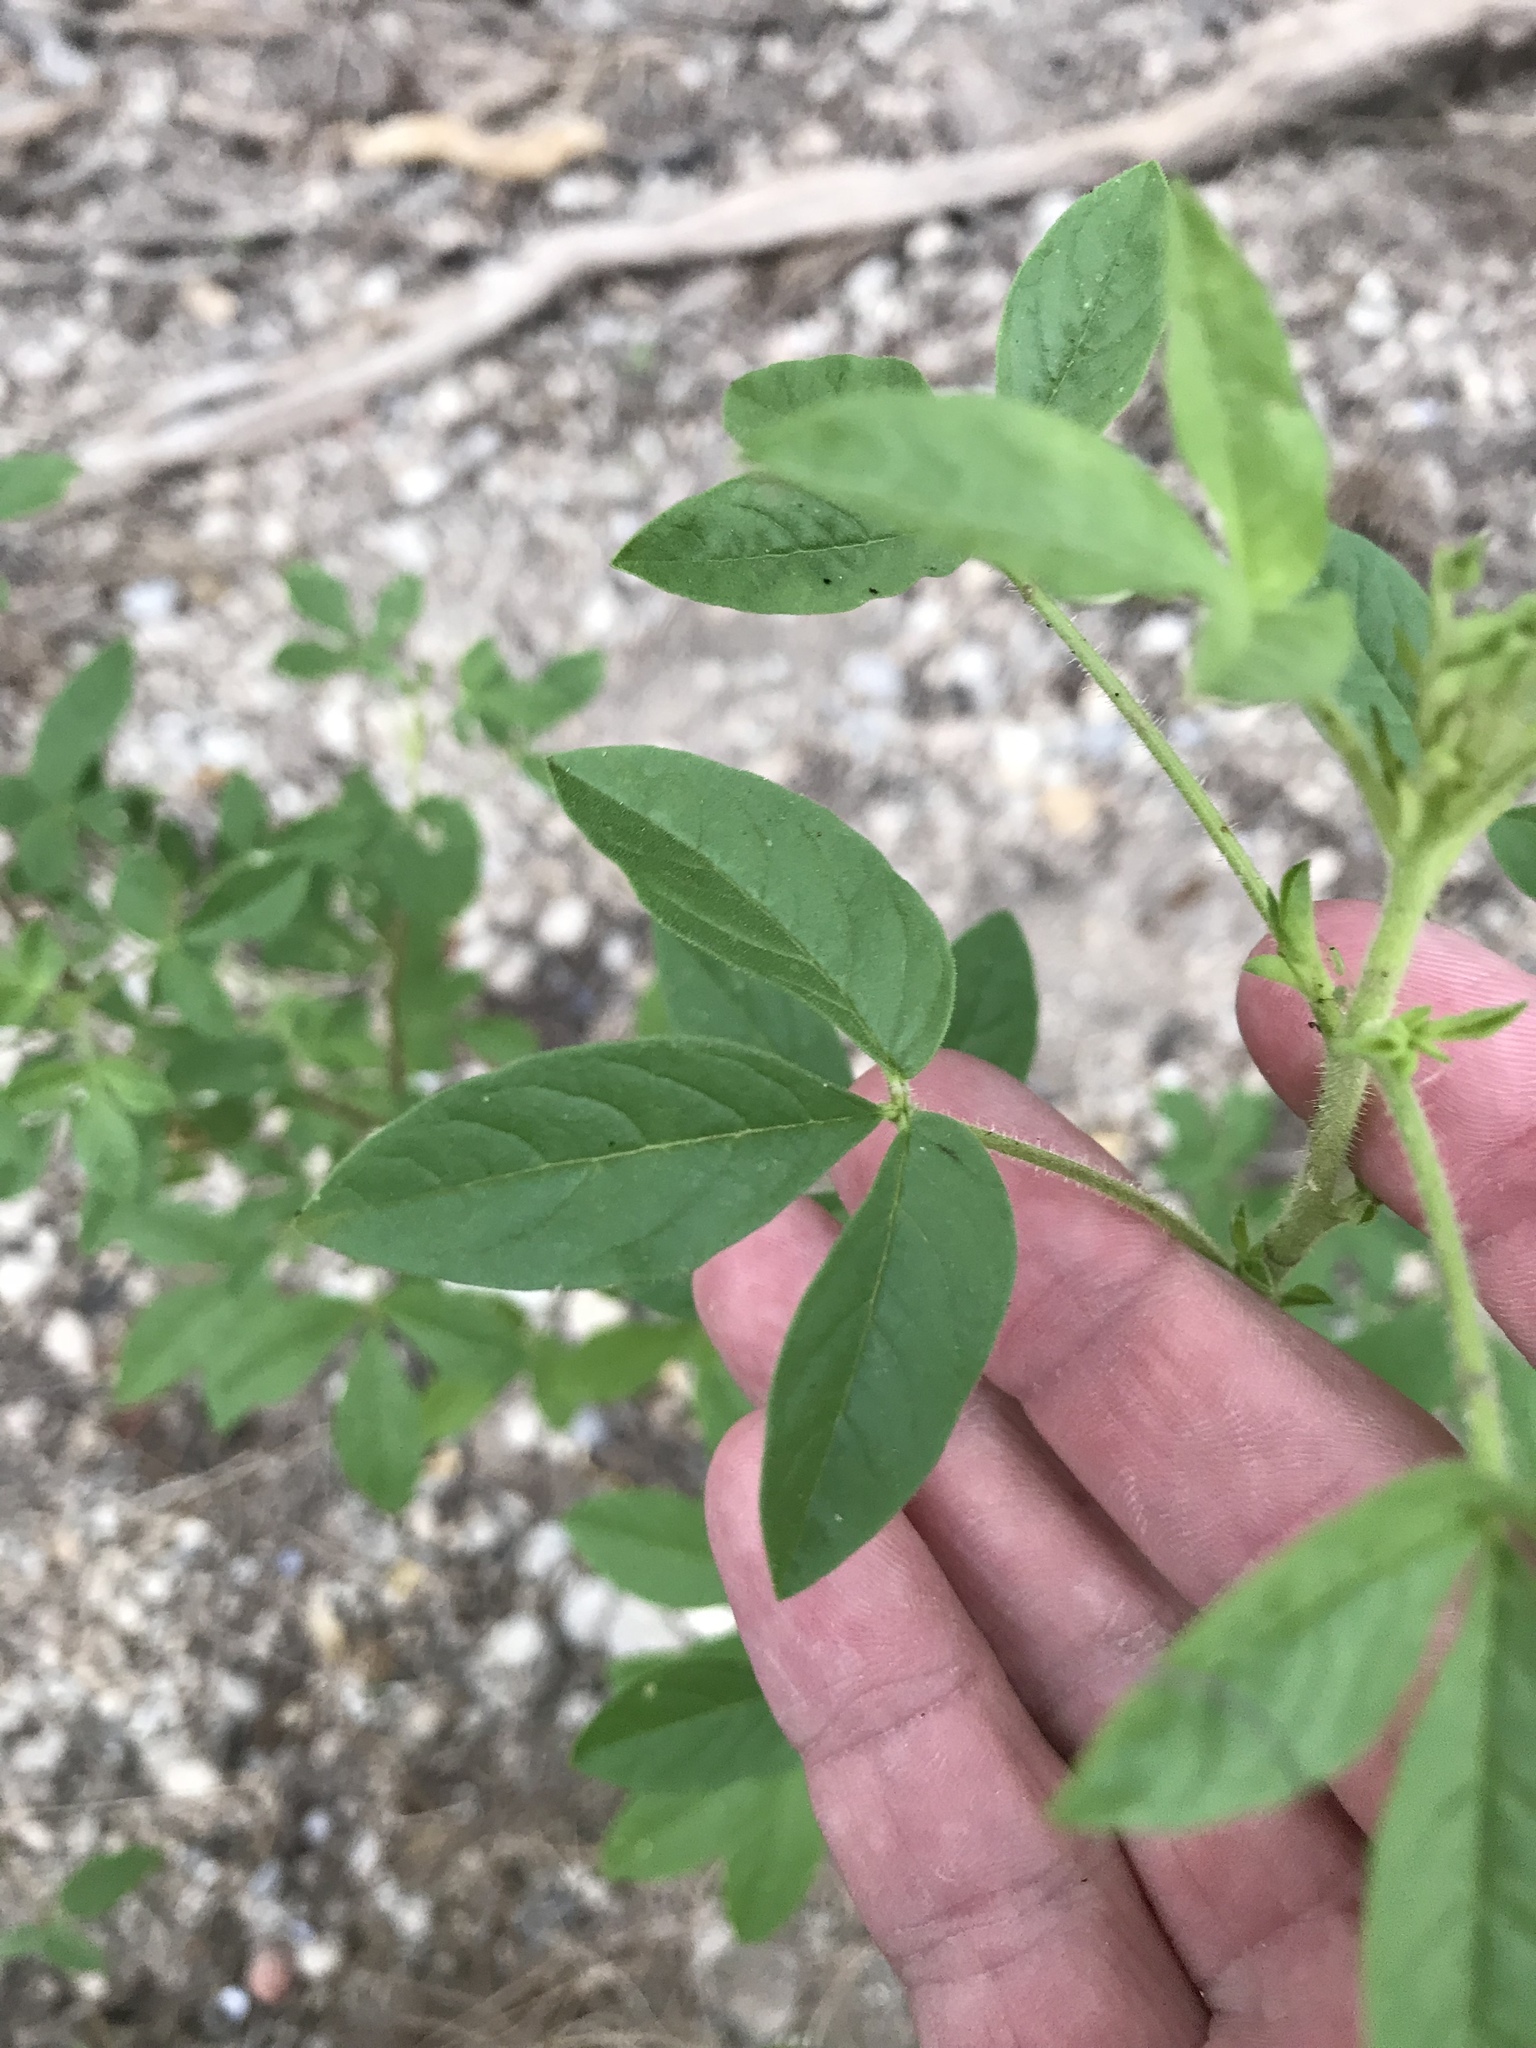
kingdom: Plantae
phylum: Tracheophyta
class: Magnoliopsida
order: Brassicales
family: Cleomaceae
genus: Polanisia
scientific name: Polanisia dodecandra
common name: Clammyweed
